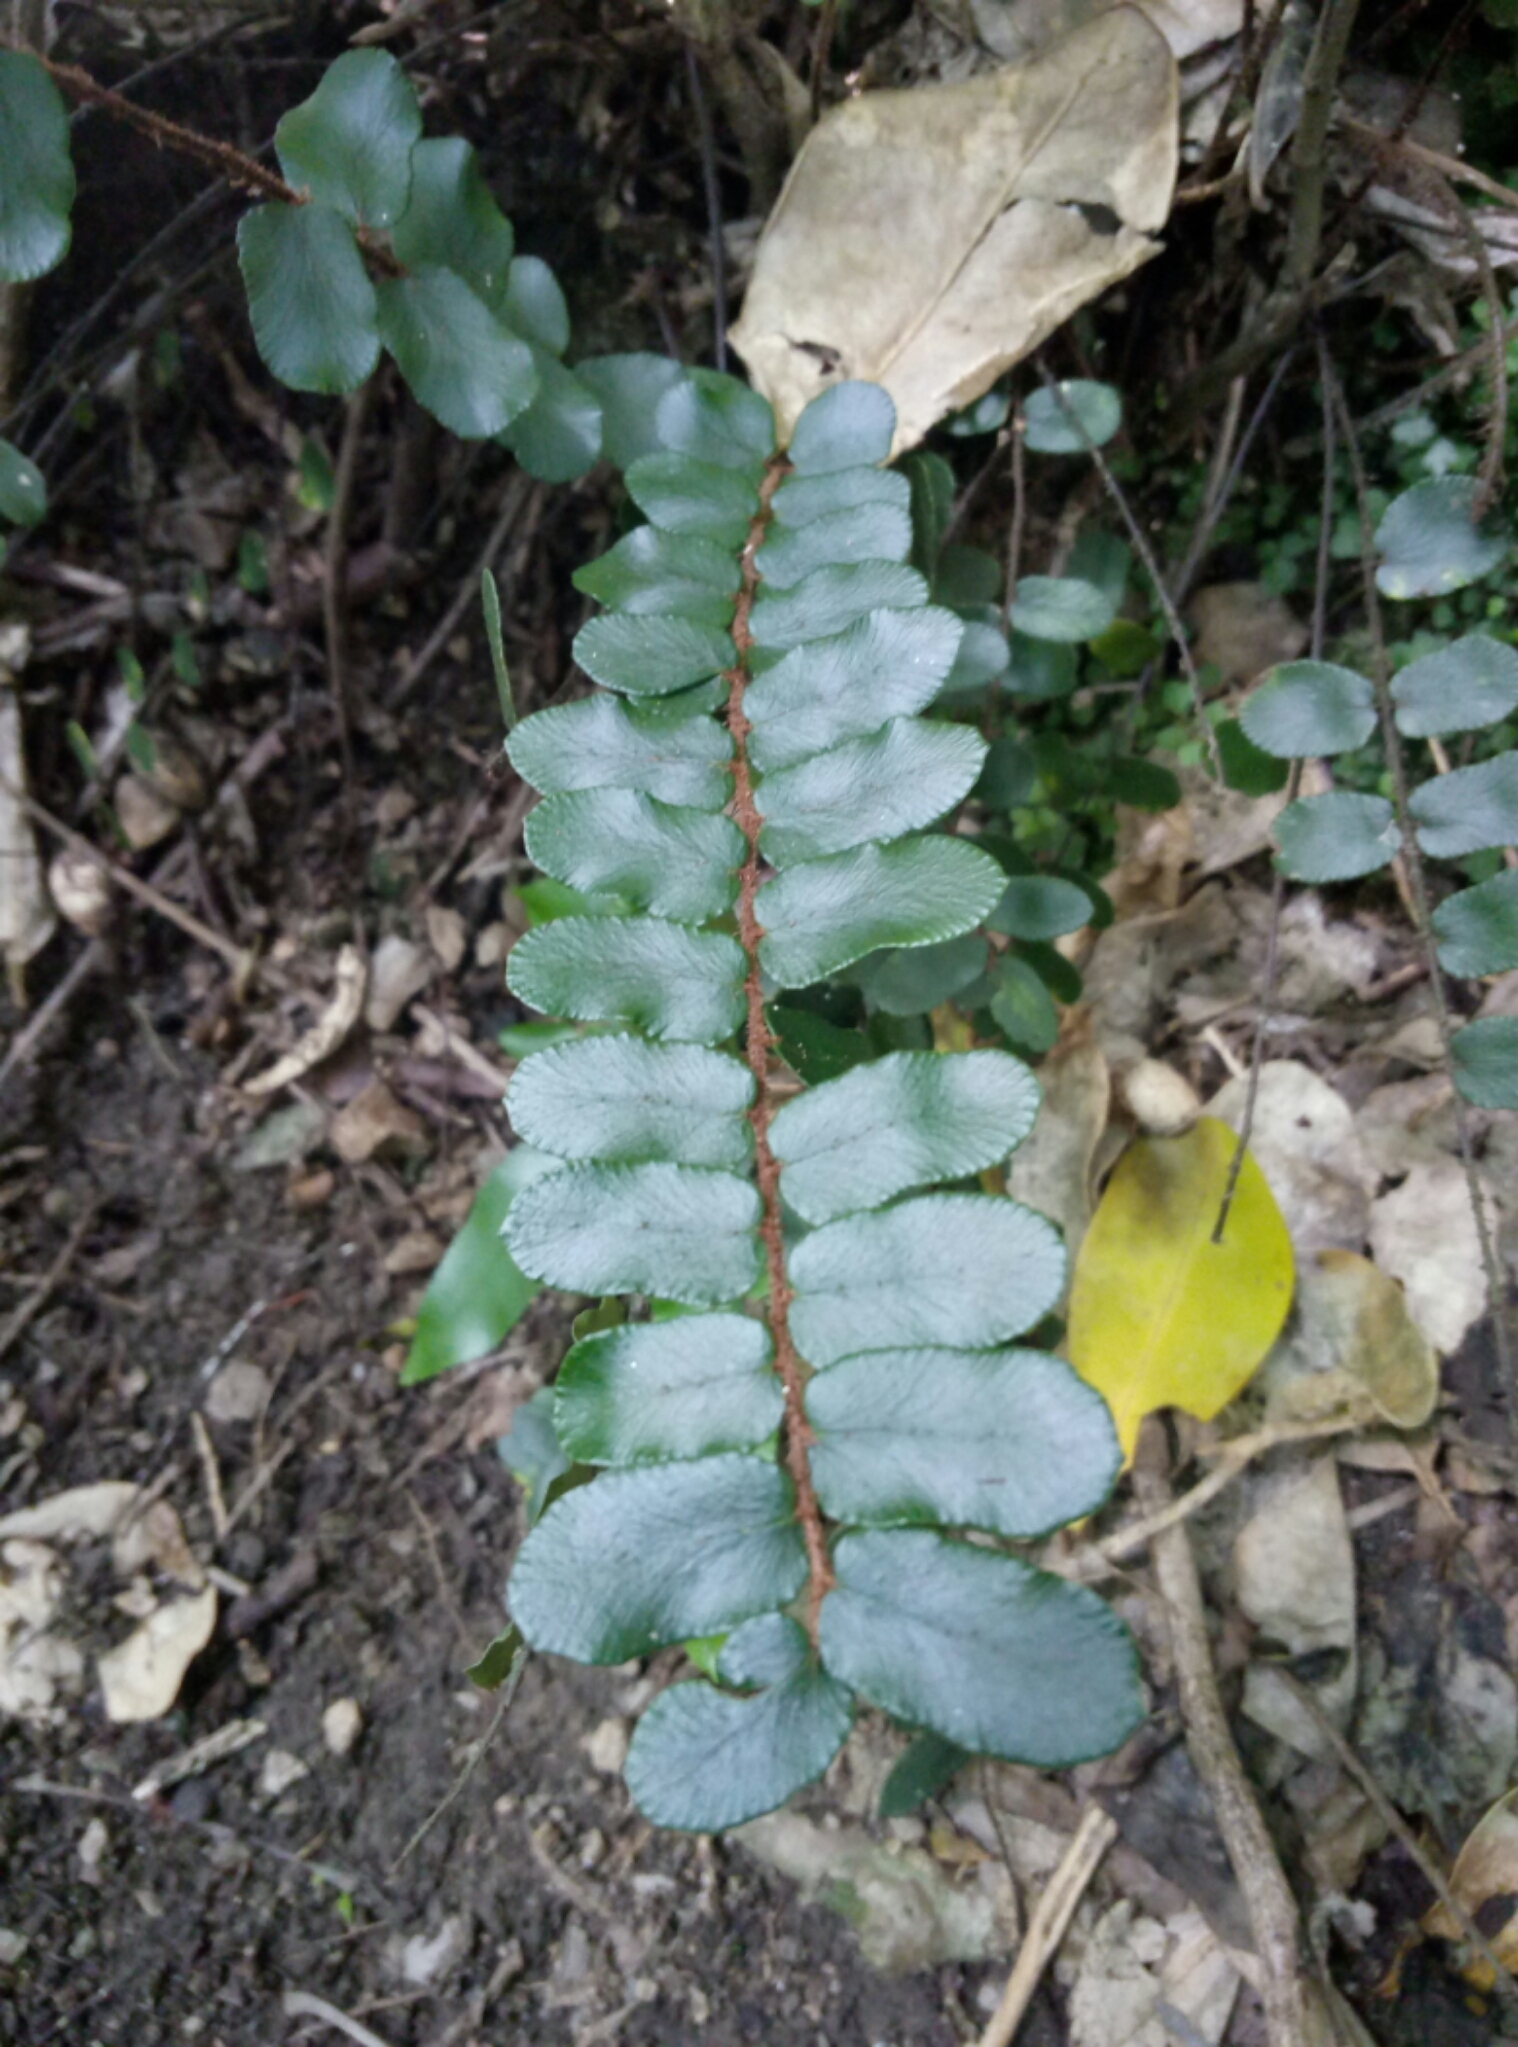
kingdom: Plantae
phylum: Tracheophyta
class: Polypodiopsida
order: Polypodiales
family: Pteridaceae
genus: Pellaea
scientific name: Pellaea rotundifolia
